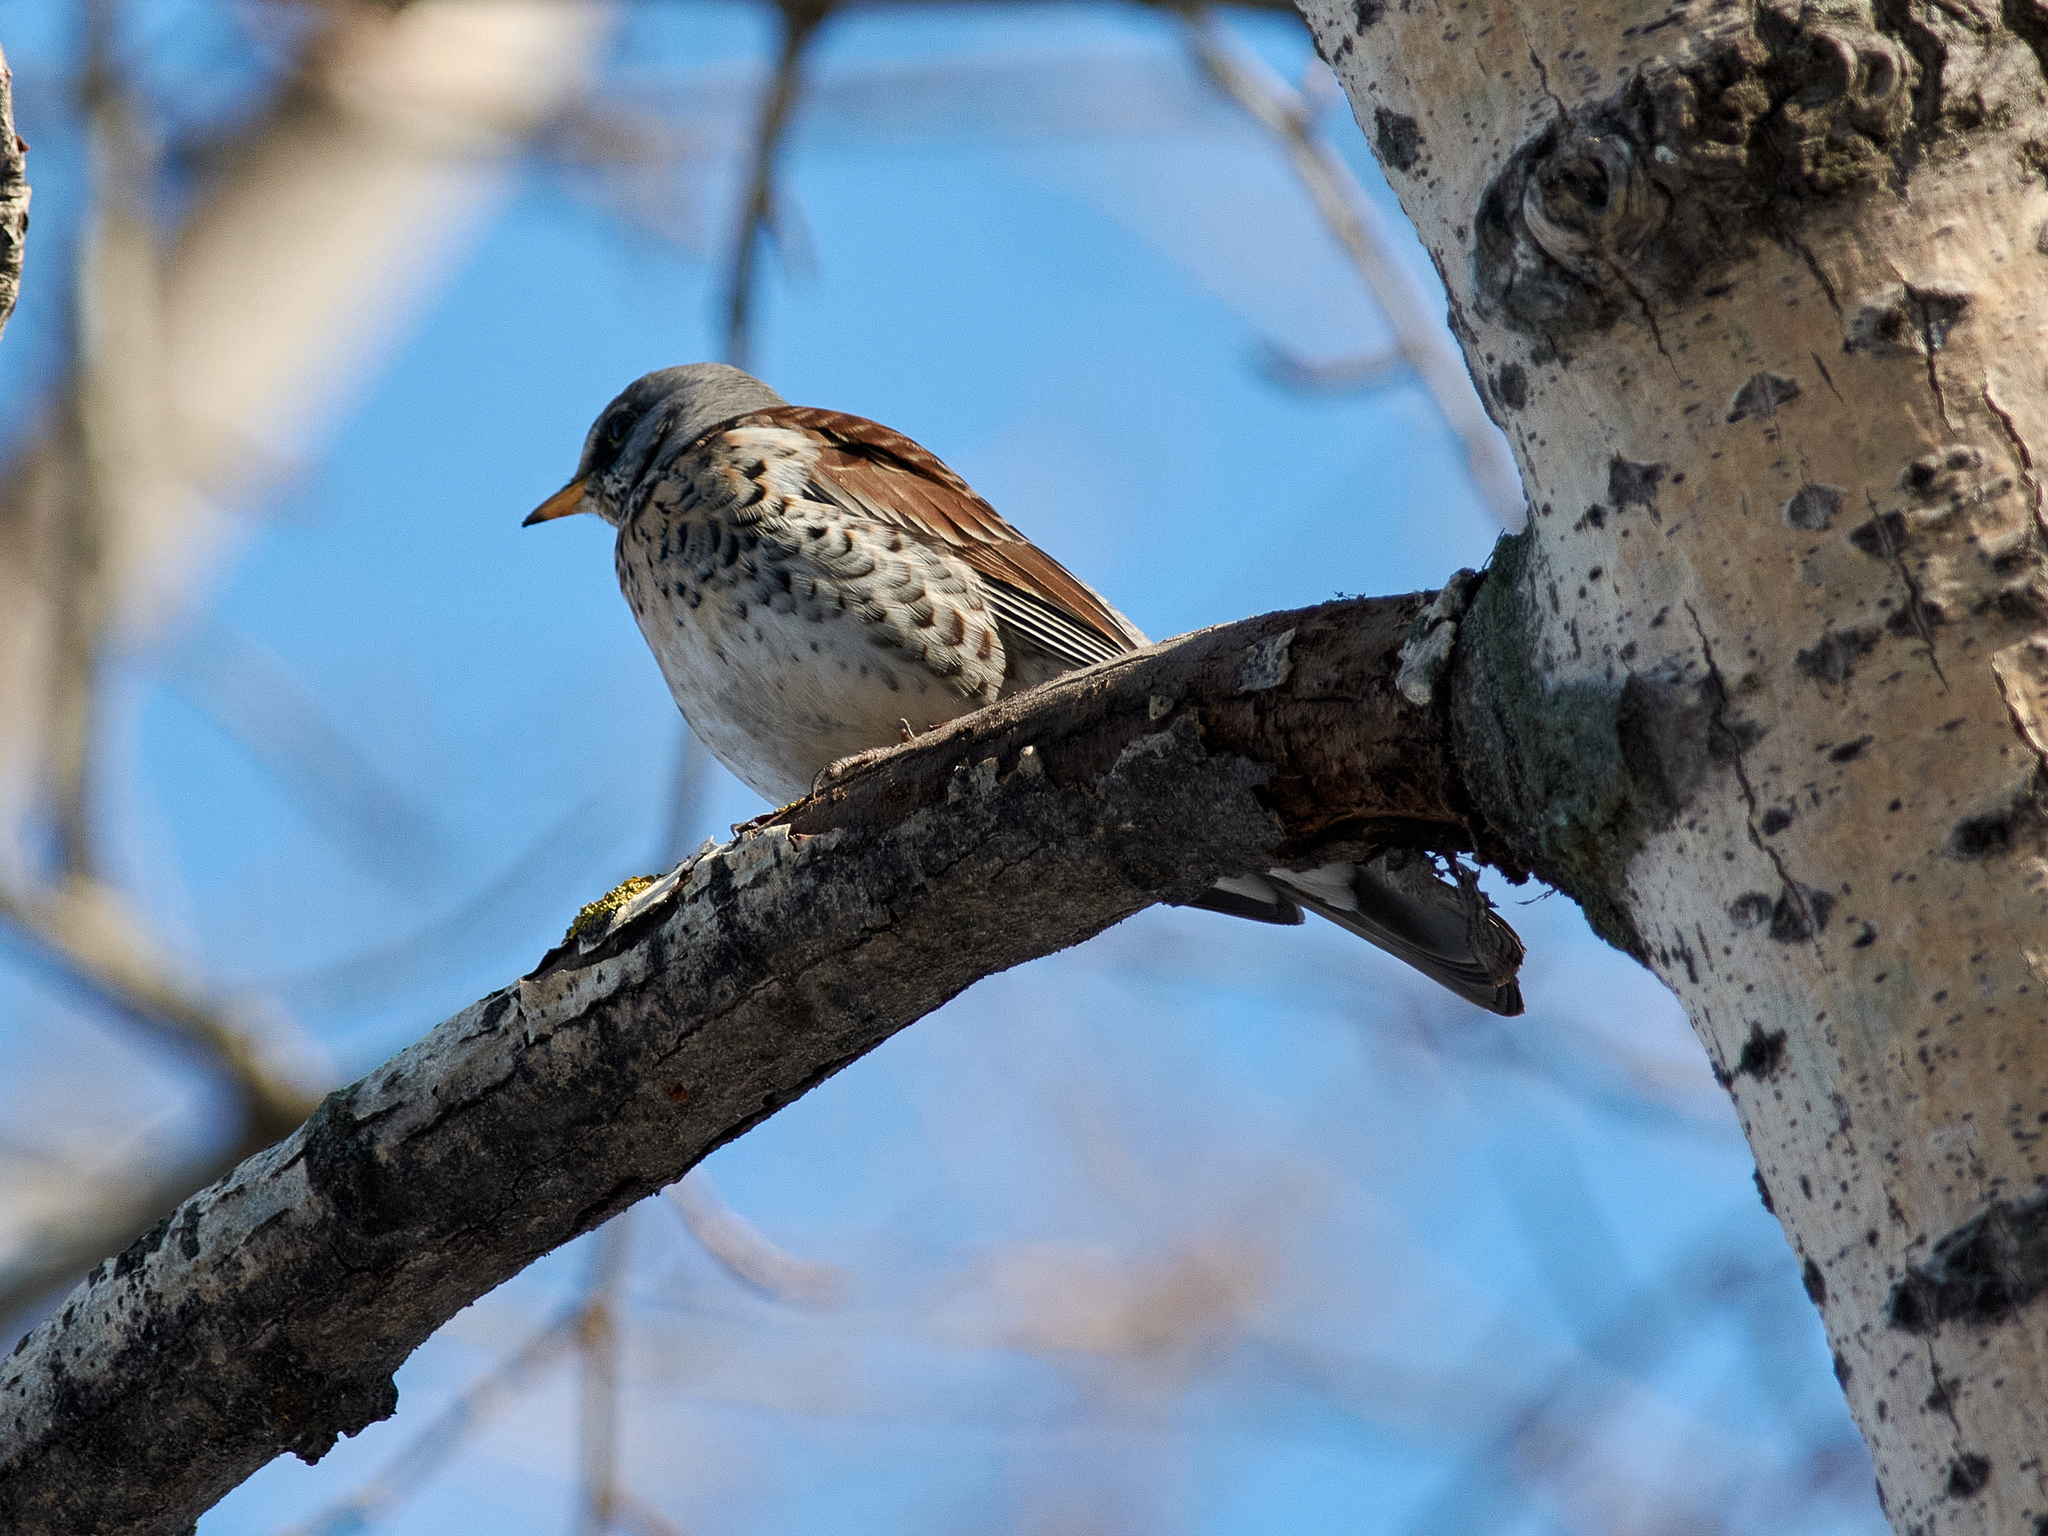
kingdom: Animalia
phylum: Chordata
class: Aves
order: Passeriformes
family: Turdidae
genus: Turdus
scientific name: Turdus pilaris
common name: Fieldfare
